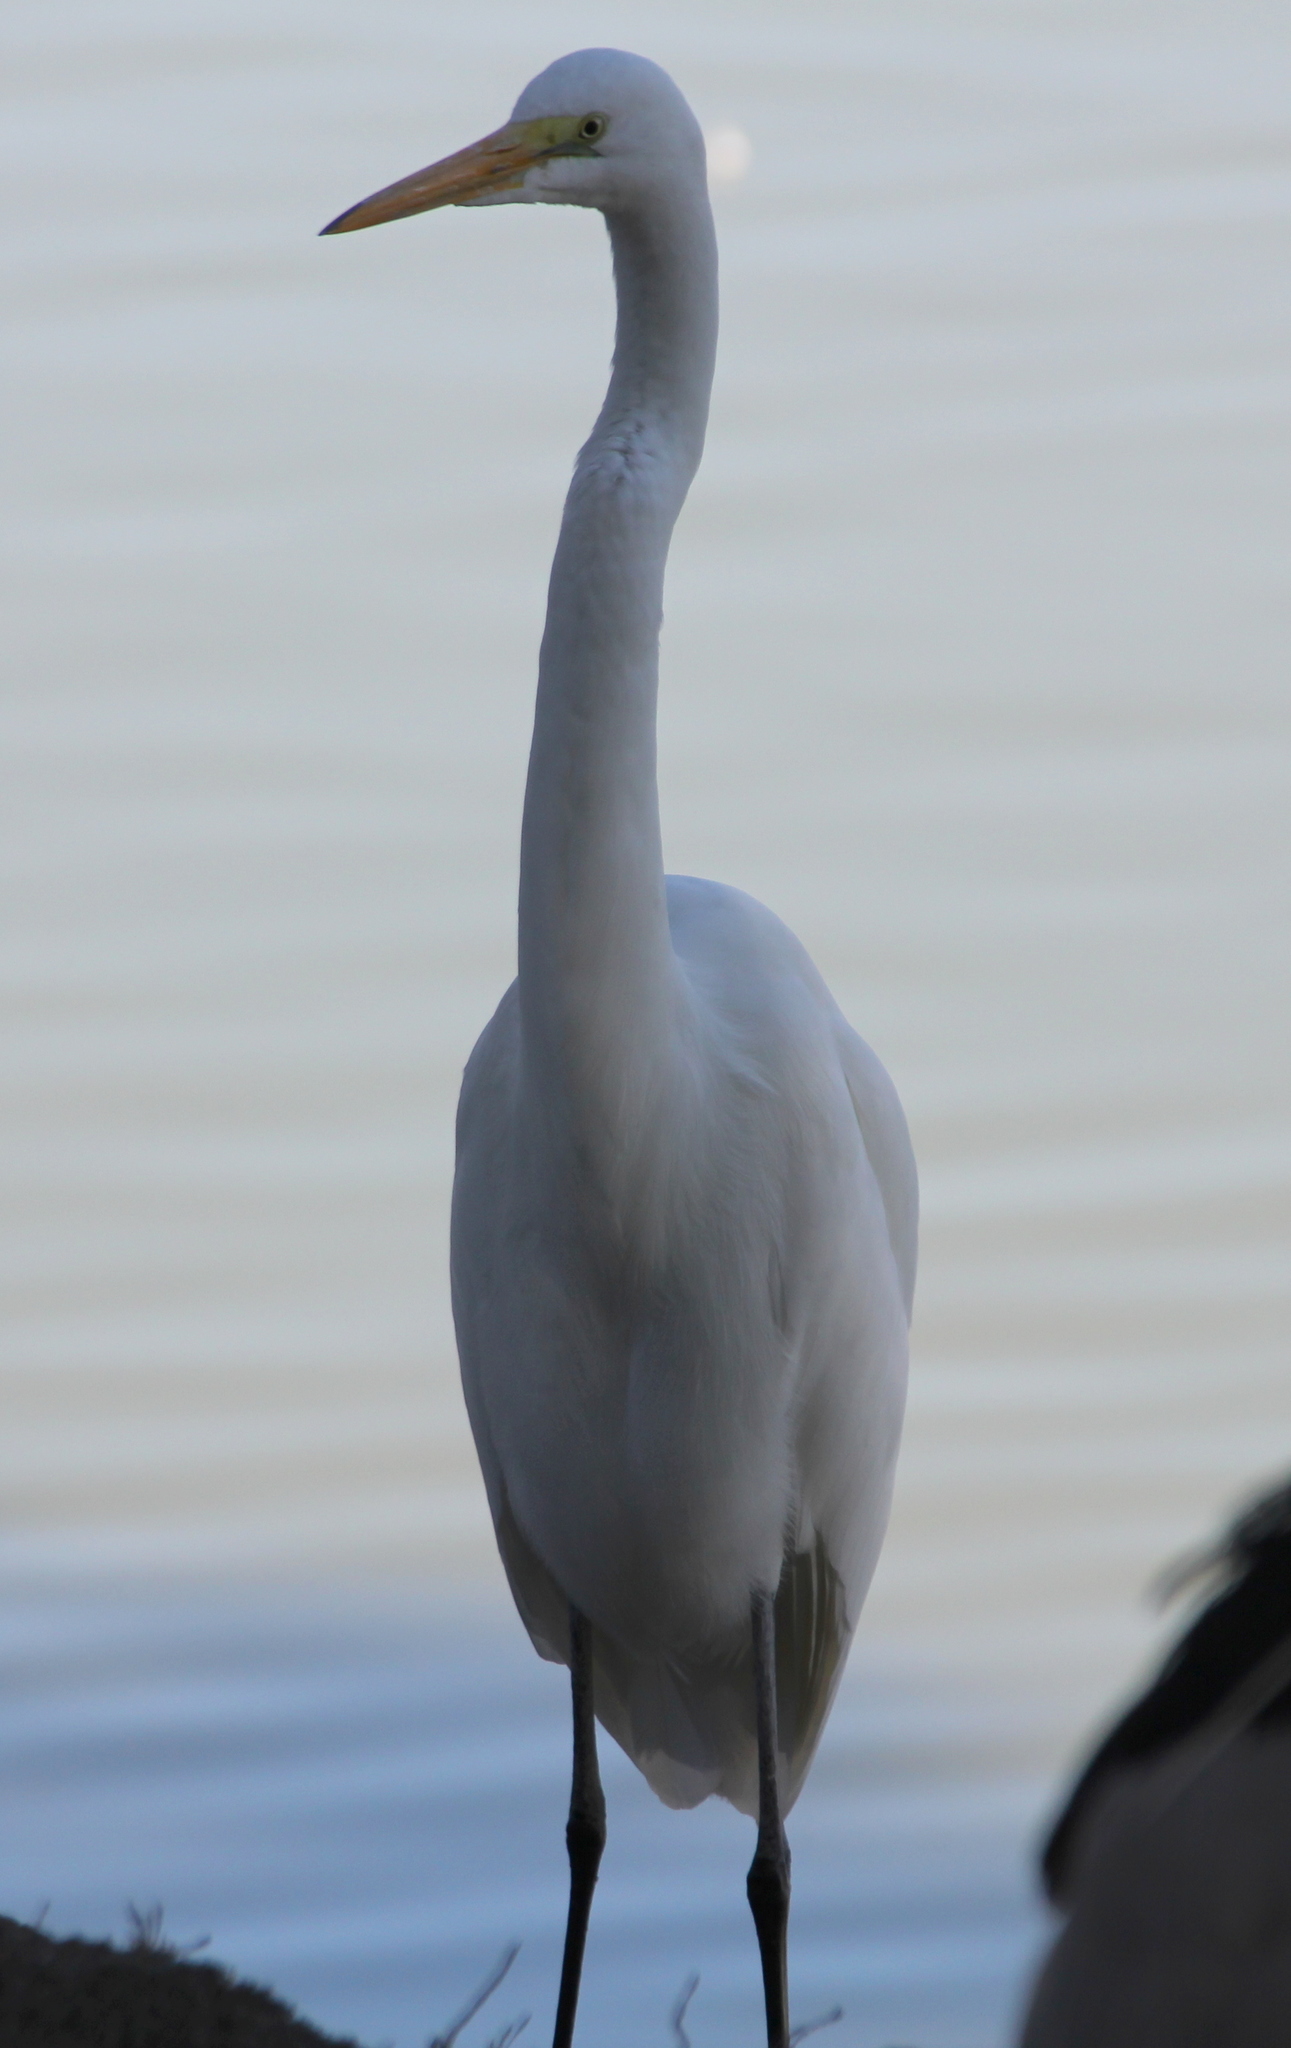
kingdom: Animalia
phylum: Chordata
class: Aves
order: Pelecaniformes
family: Ardeidae
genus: Ardea
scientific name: Ardea alba
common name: Great egret
